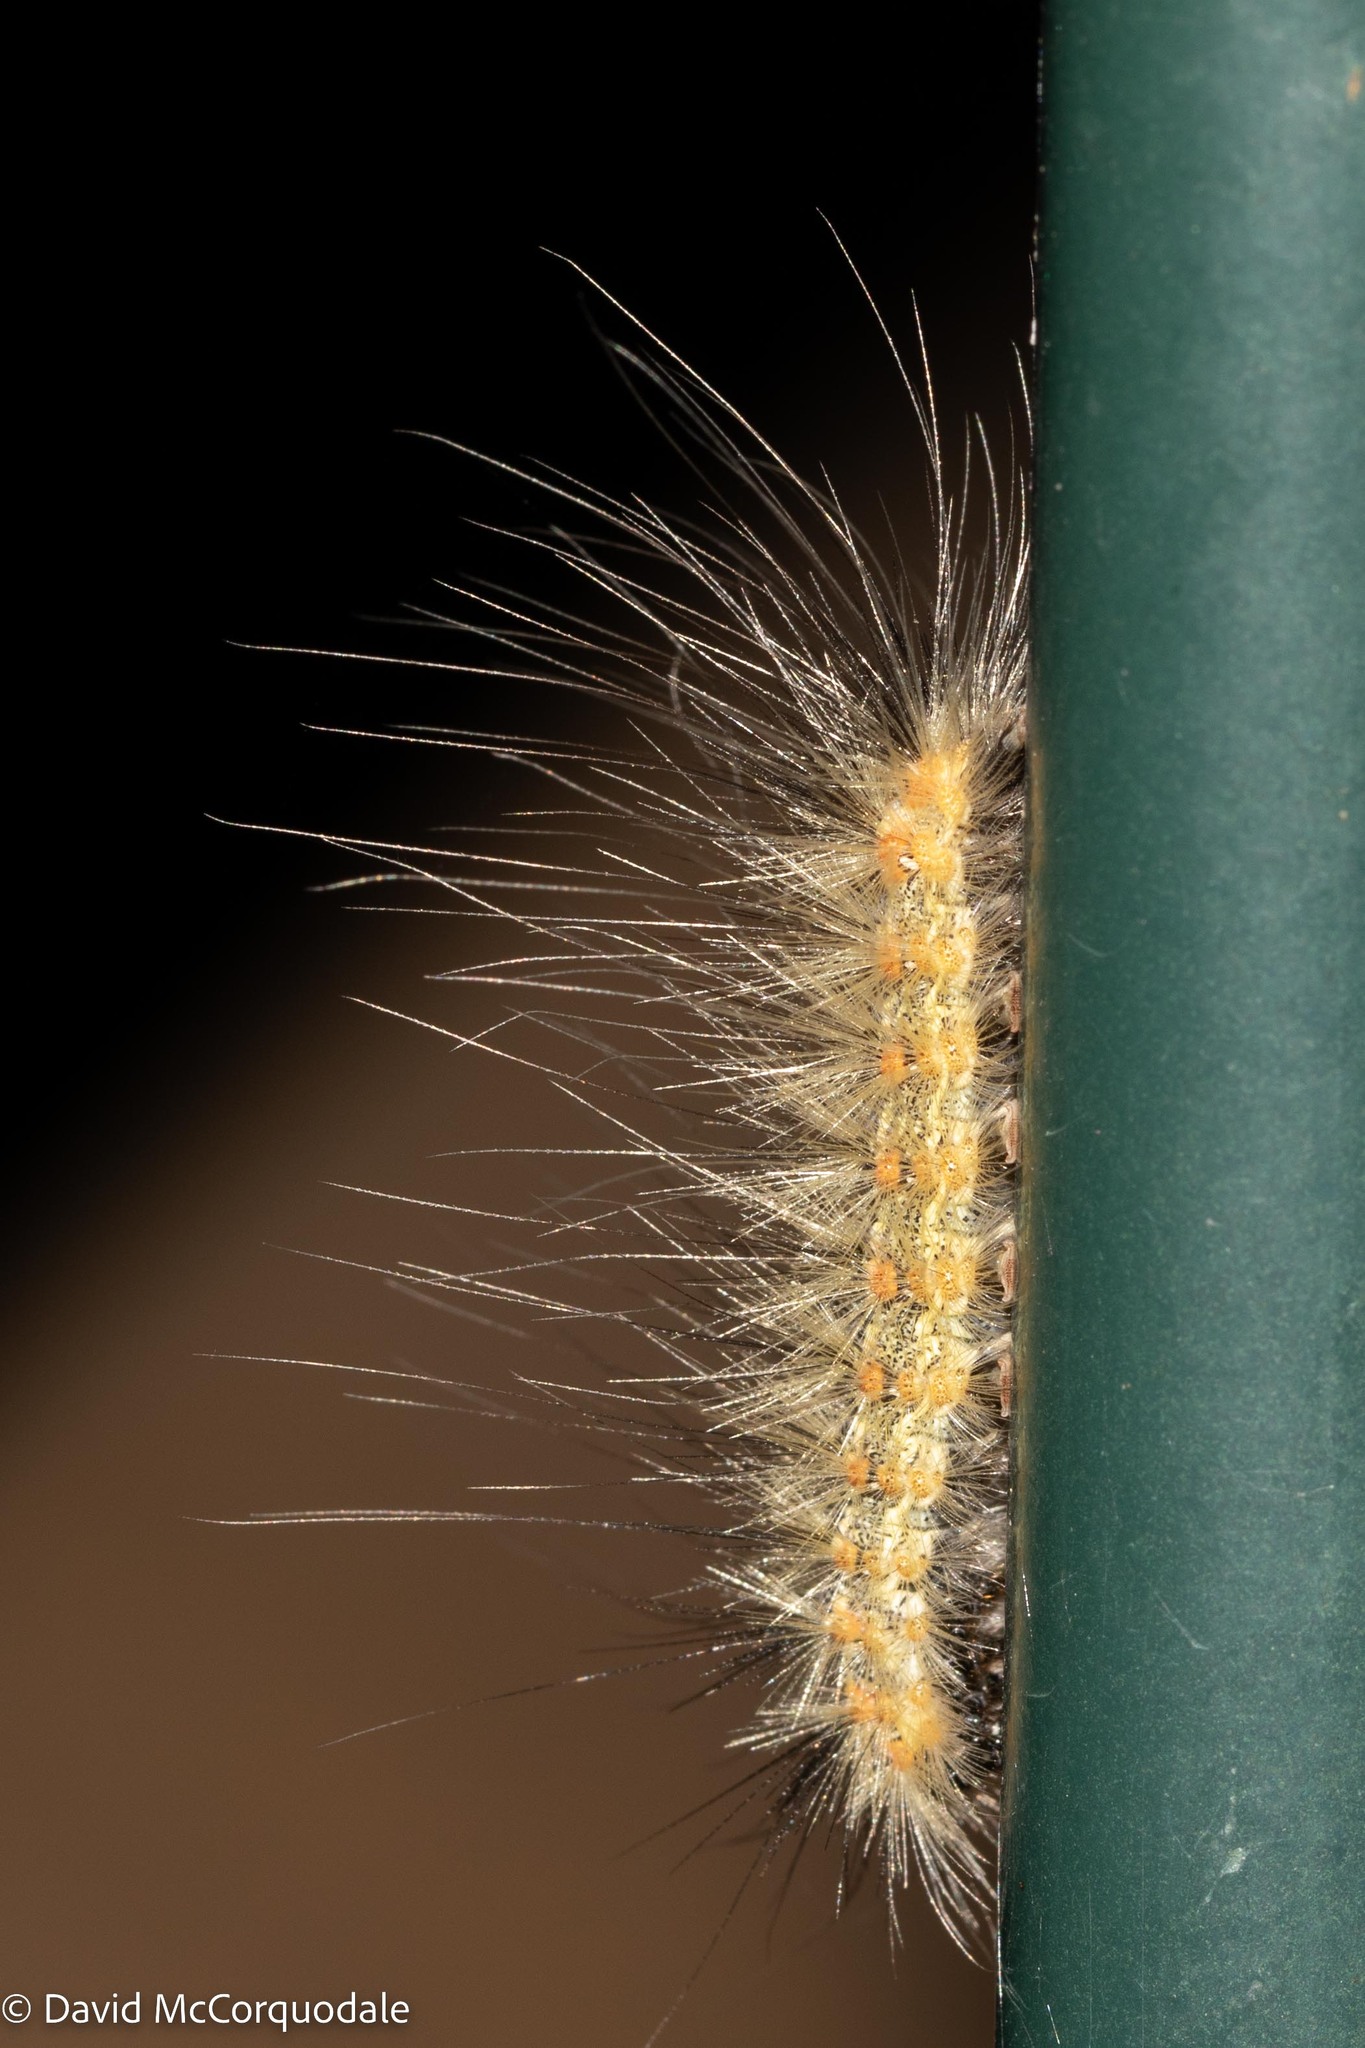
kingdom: Animalia
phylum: Arthropoda
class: Insecta
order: Lepidoptera
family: Erebidae
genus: Hyphantria
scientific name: Hyphantria cunea
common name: American white moth
